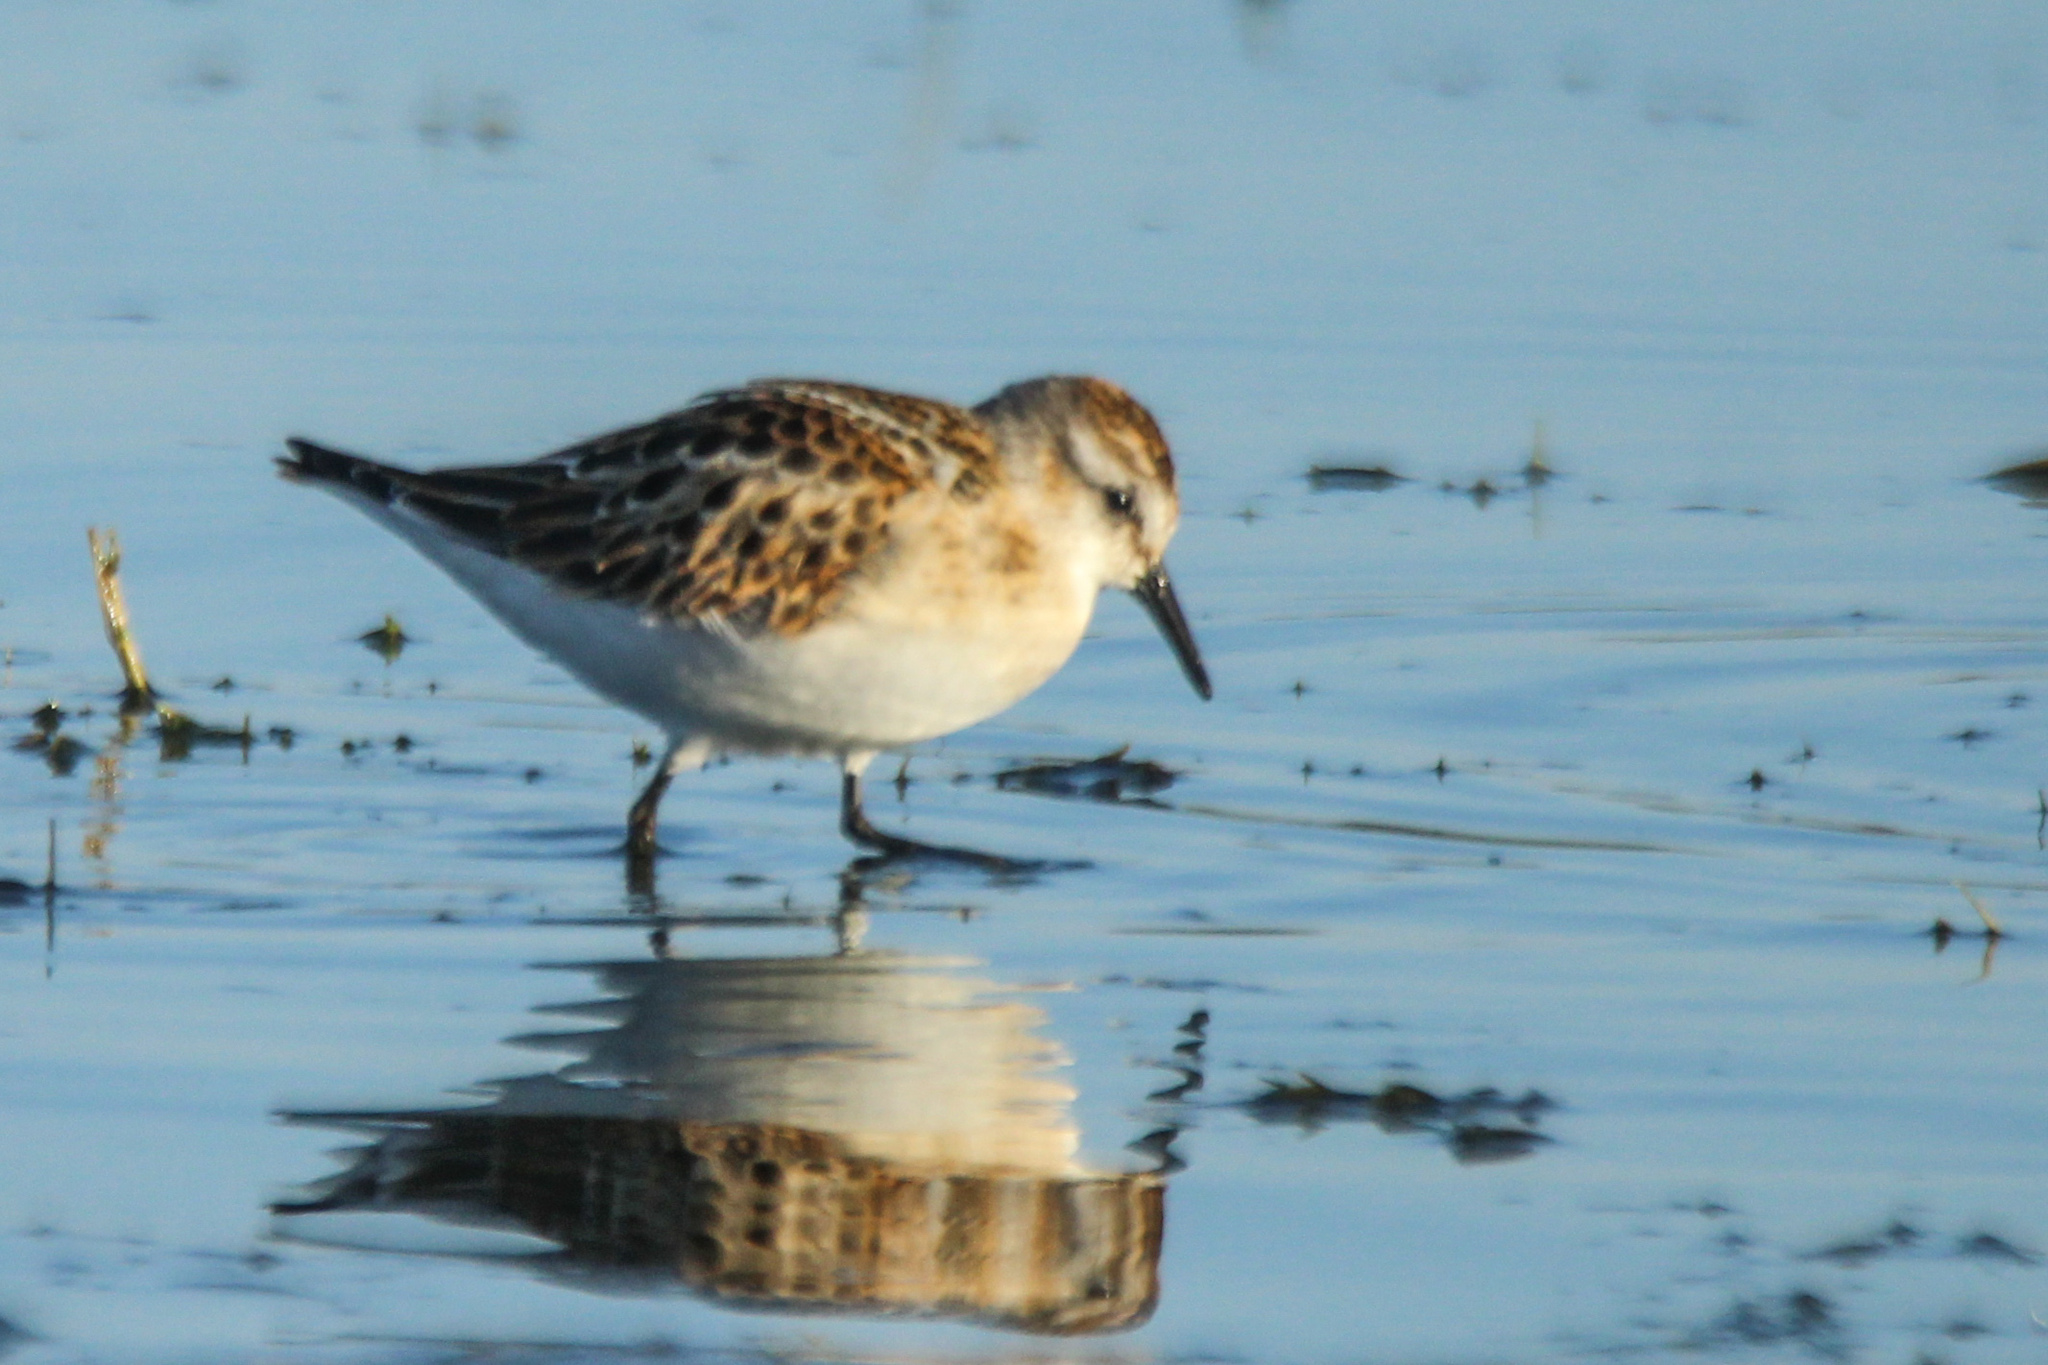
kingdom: Animalia
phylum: Chordata
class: Aves
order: Charadriiformes
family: Scolopacidae
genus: Calidris
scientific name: Calidris minuta
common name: Little stint
